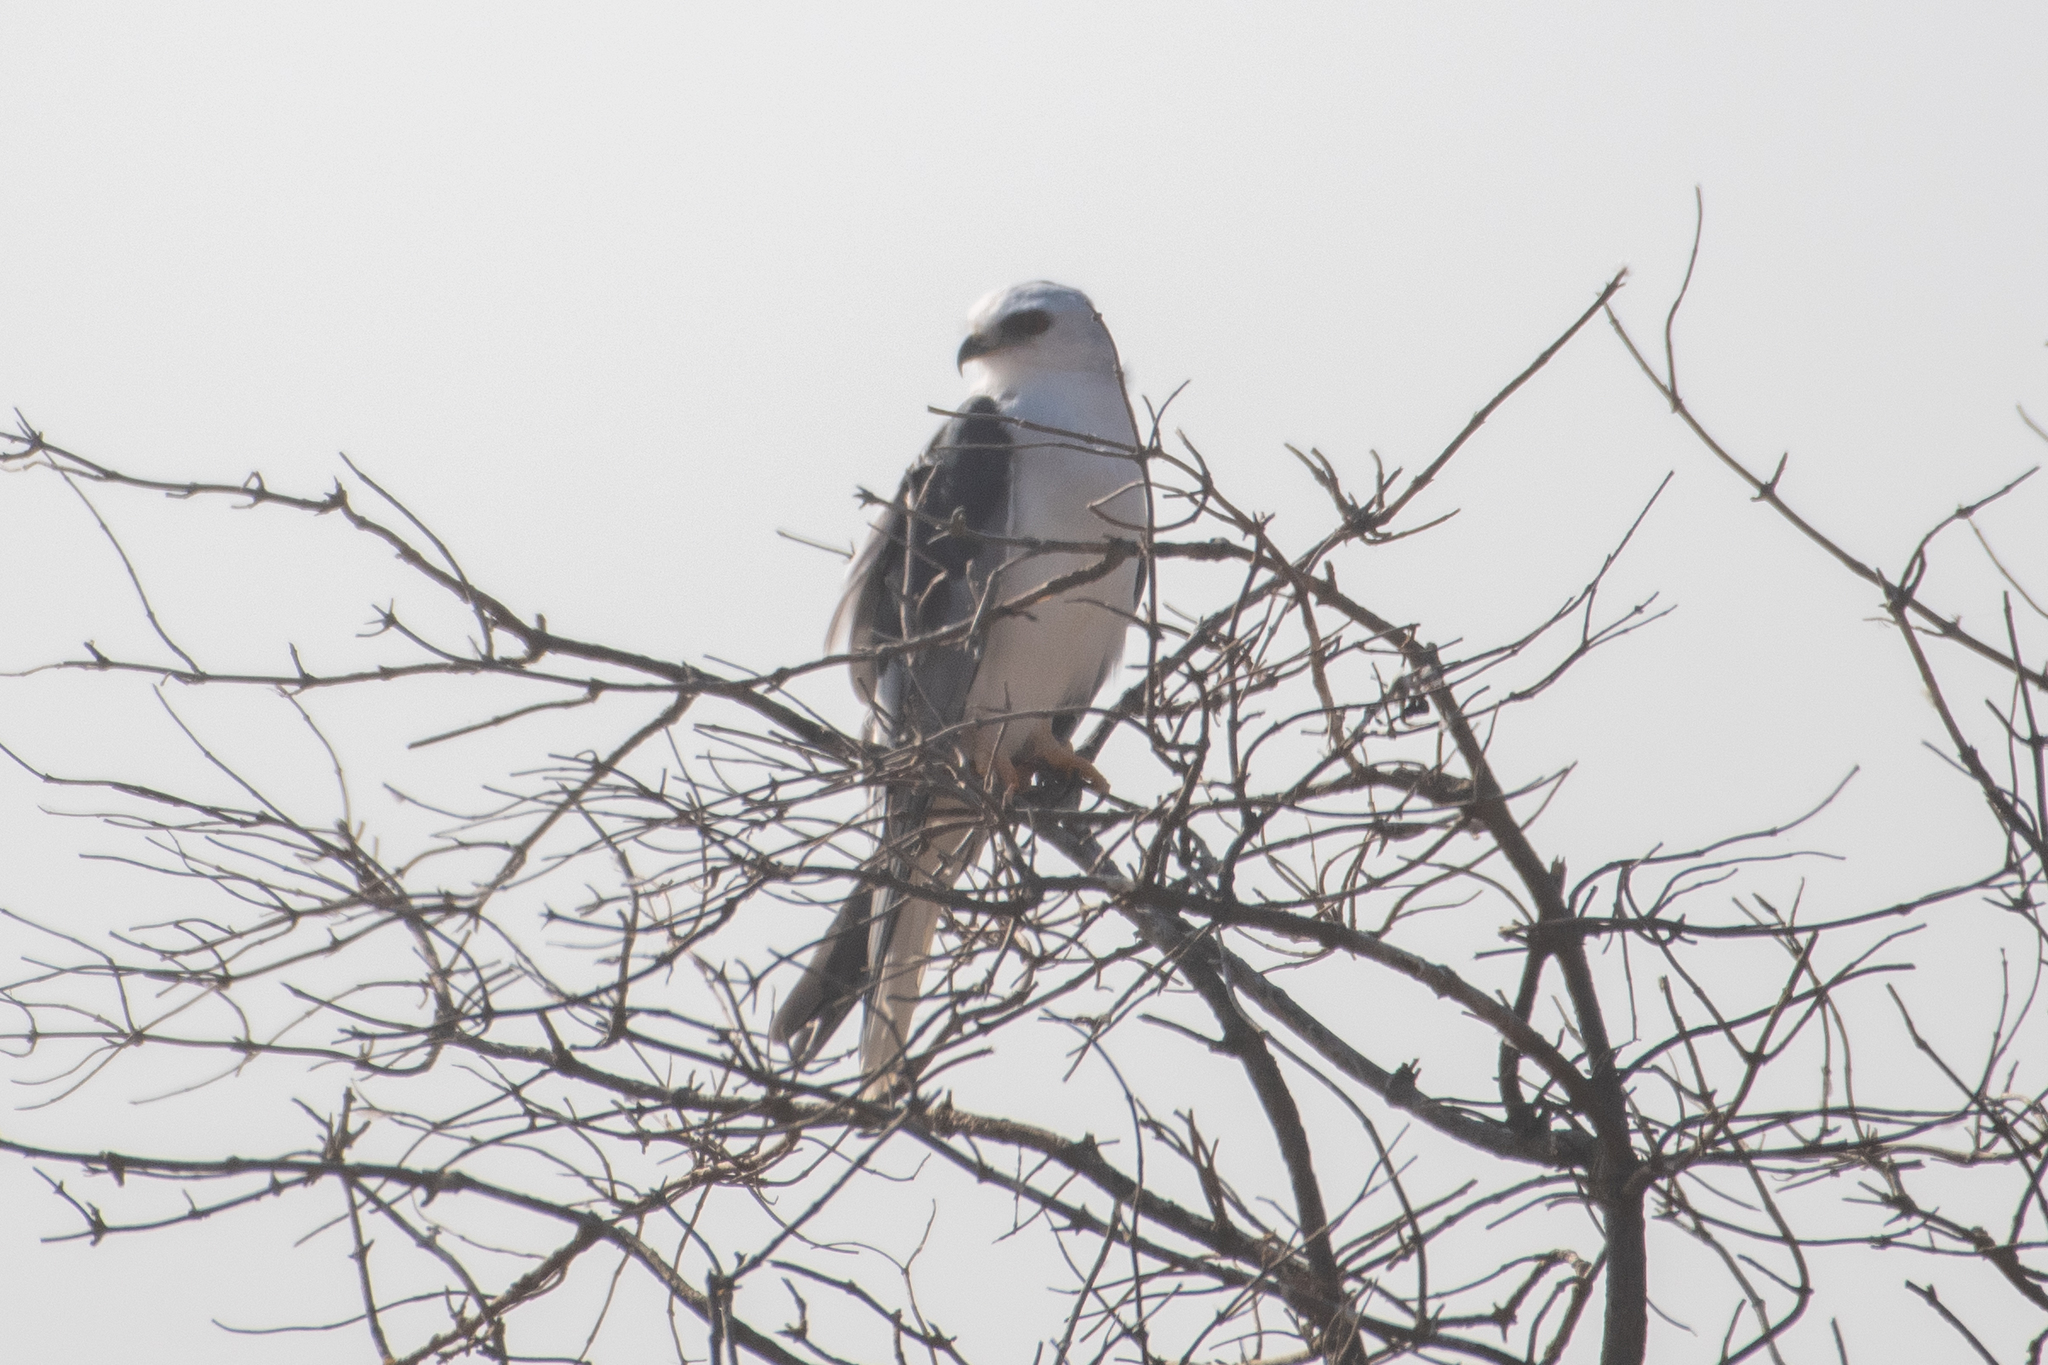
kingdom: Animalia
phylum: Chordata
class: Aves
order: Accipitriformes
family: Accipitridae
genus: Elanus
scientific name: Elanus leucurus
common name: White-tailed kite
